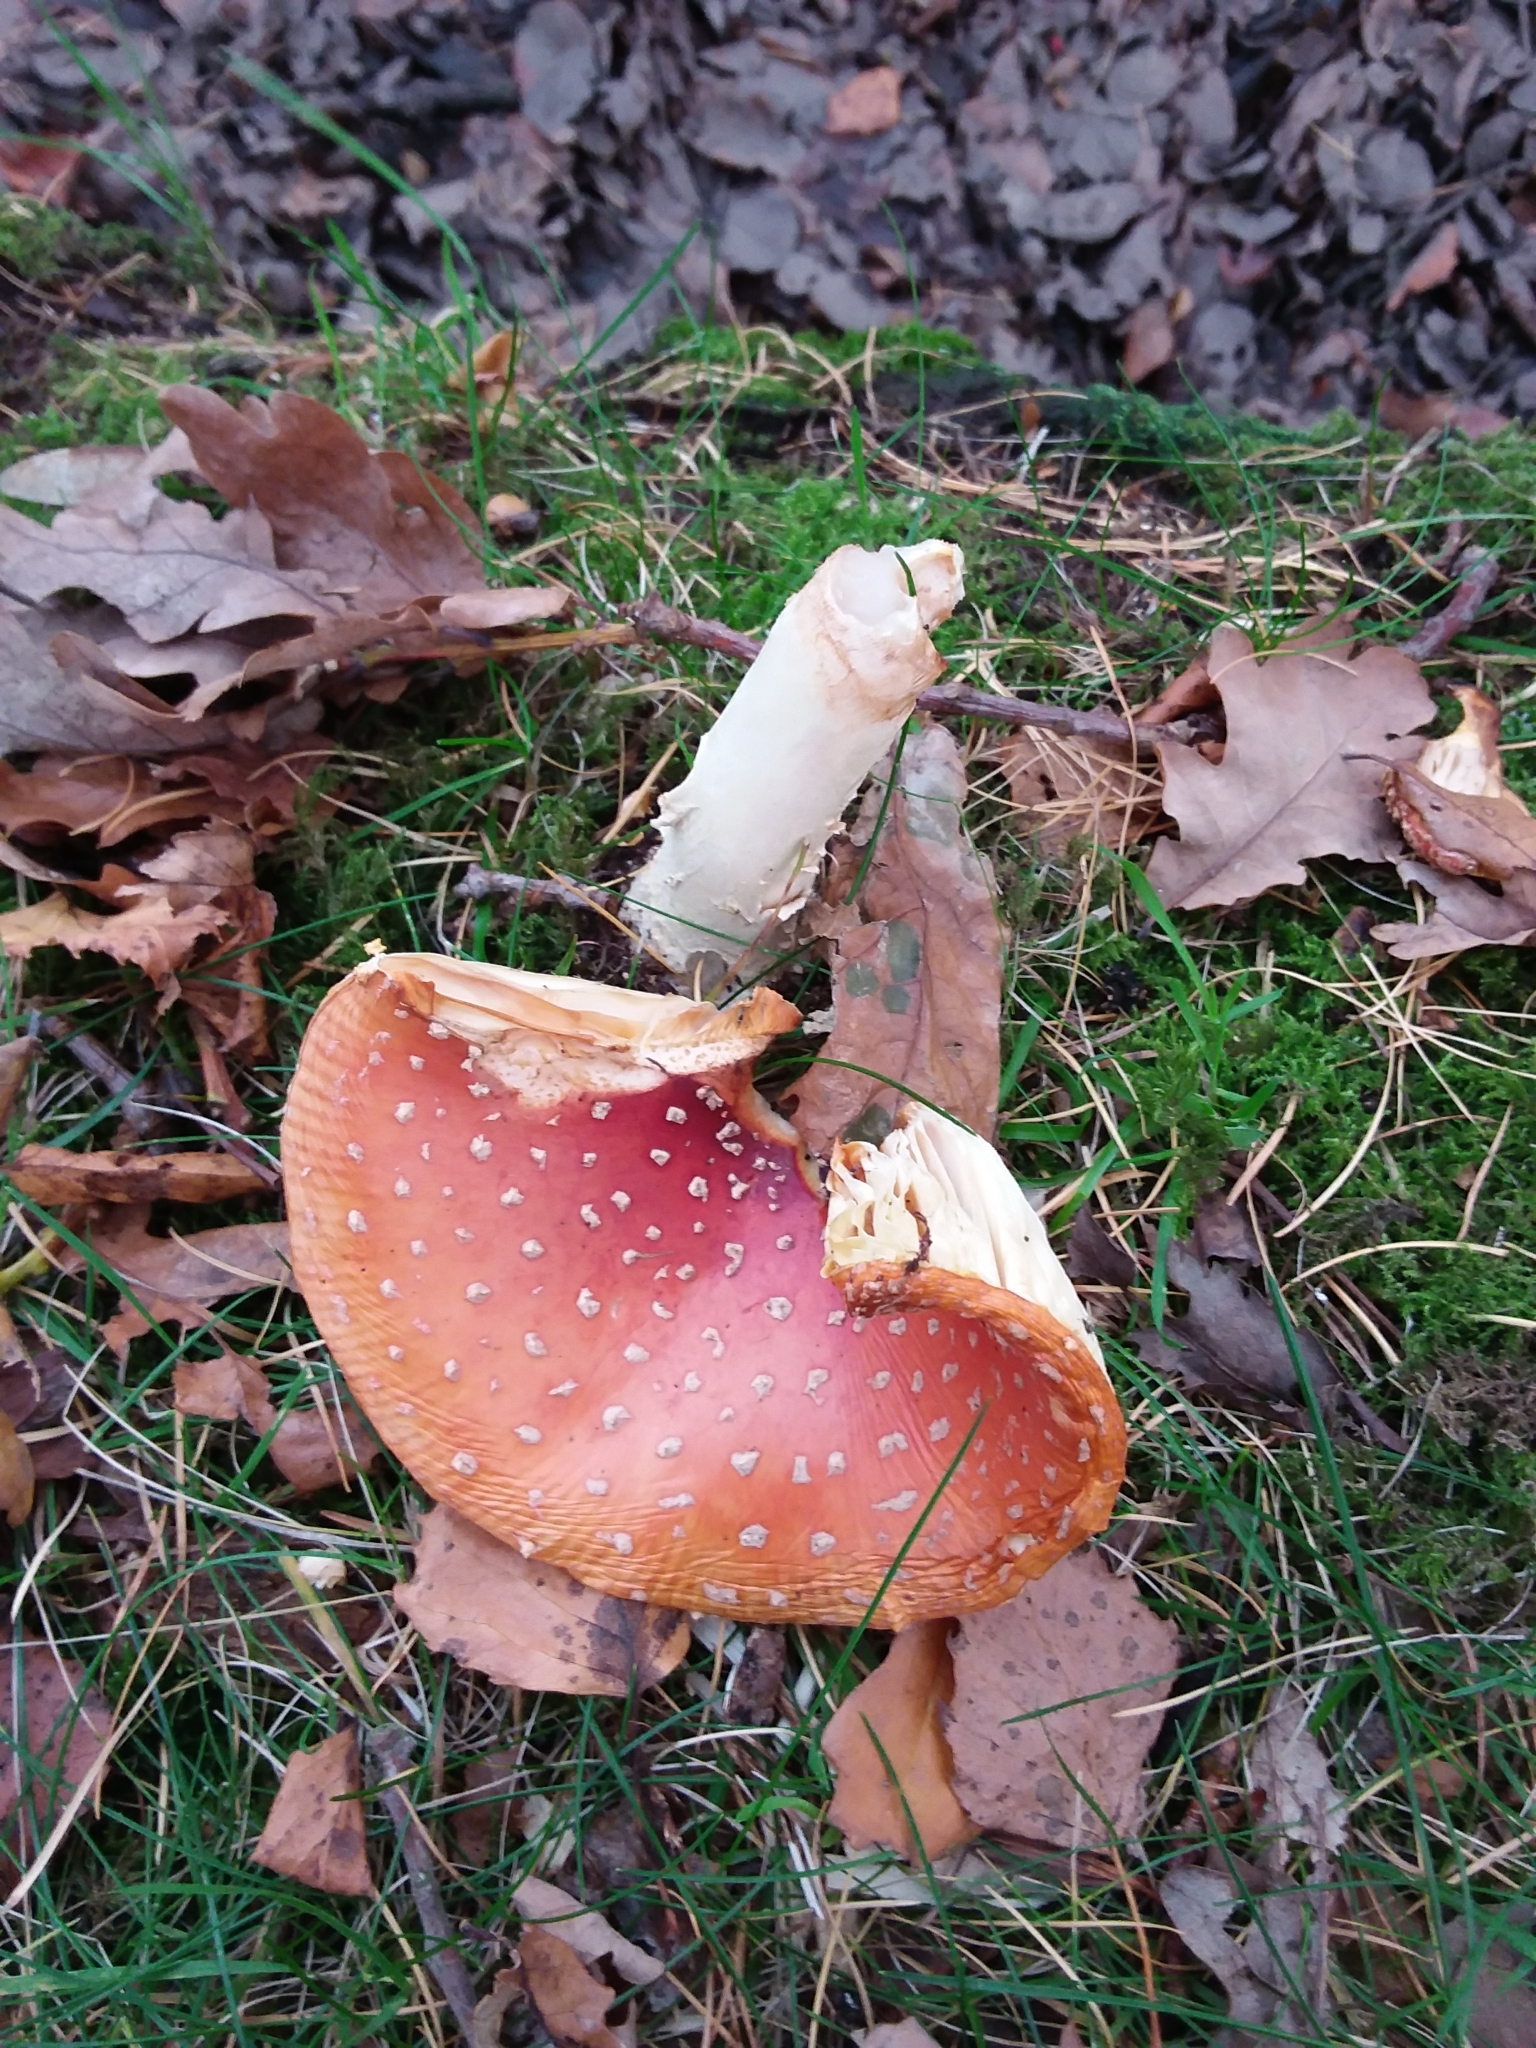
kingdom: Fungi
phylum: Basidiomycota
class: Agaricomycetes
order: Agaricales
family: Amanitaceae
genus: Amanita
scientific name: Amanita muscaria
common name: Fly agaric
